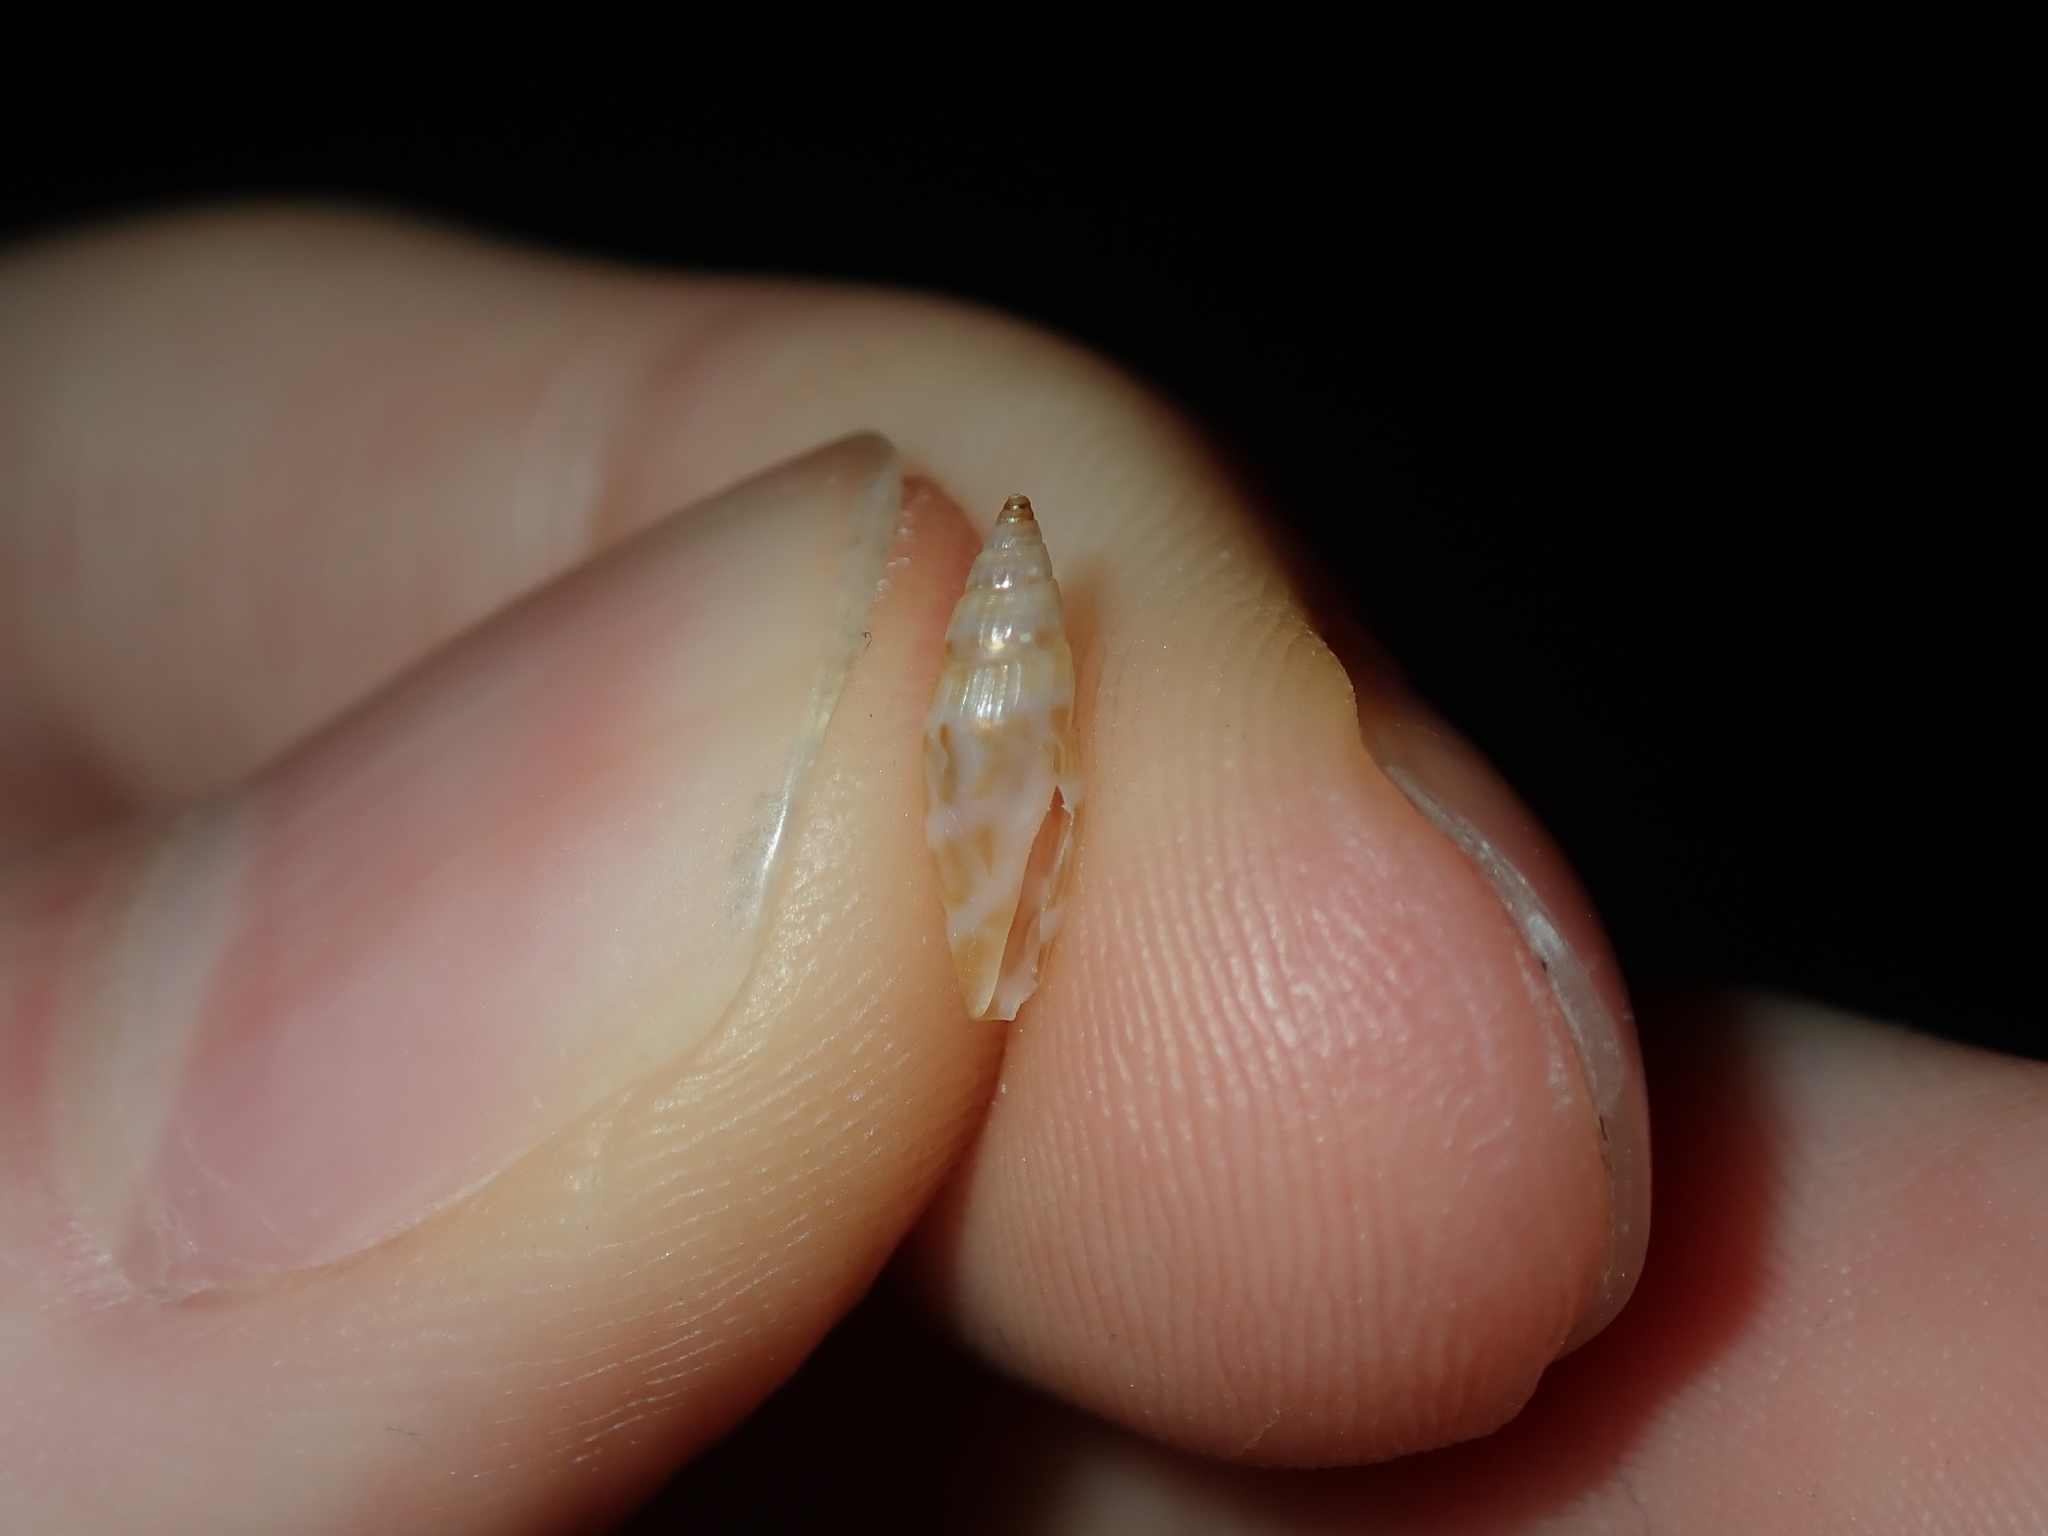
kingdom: Animalia
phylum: Mollusca
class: Gastropoda
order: Neogastropoda
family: Mangeliidae
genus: Parviterebra
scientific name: Parviterebra brazieri
